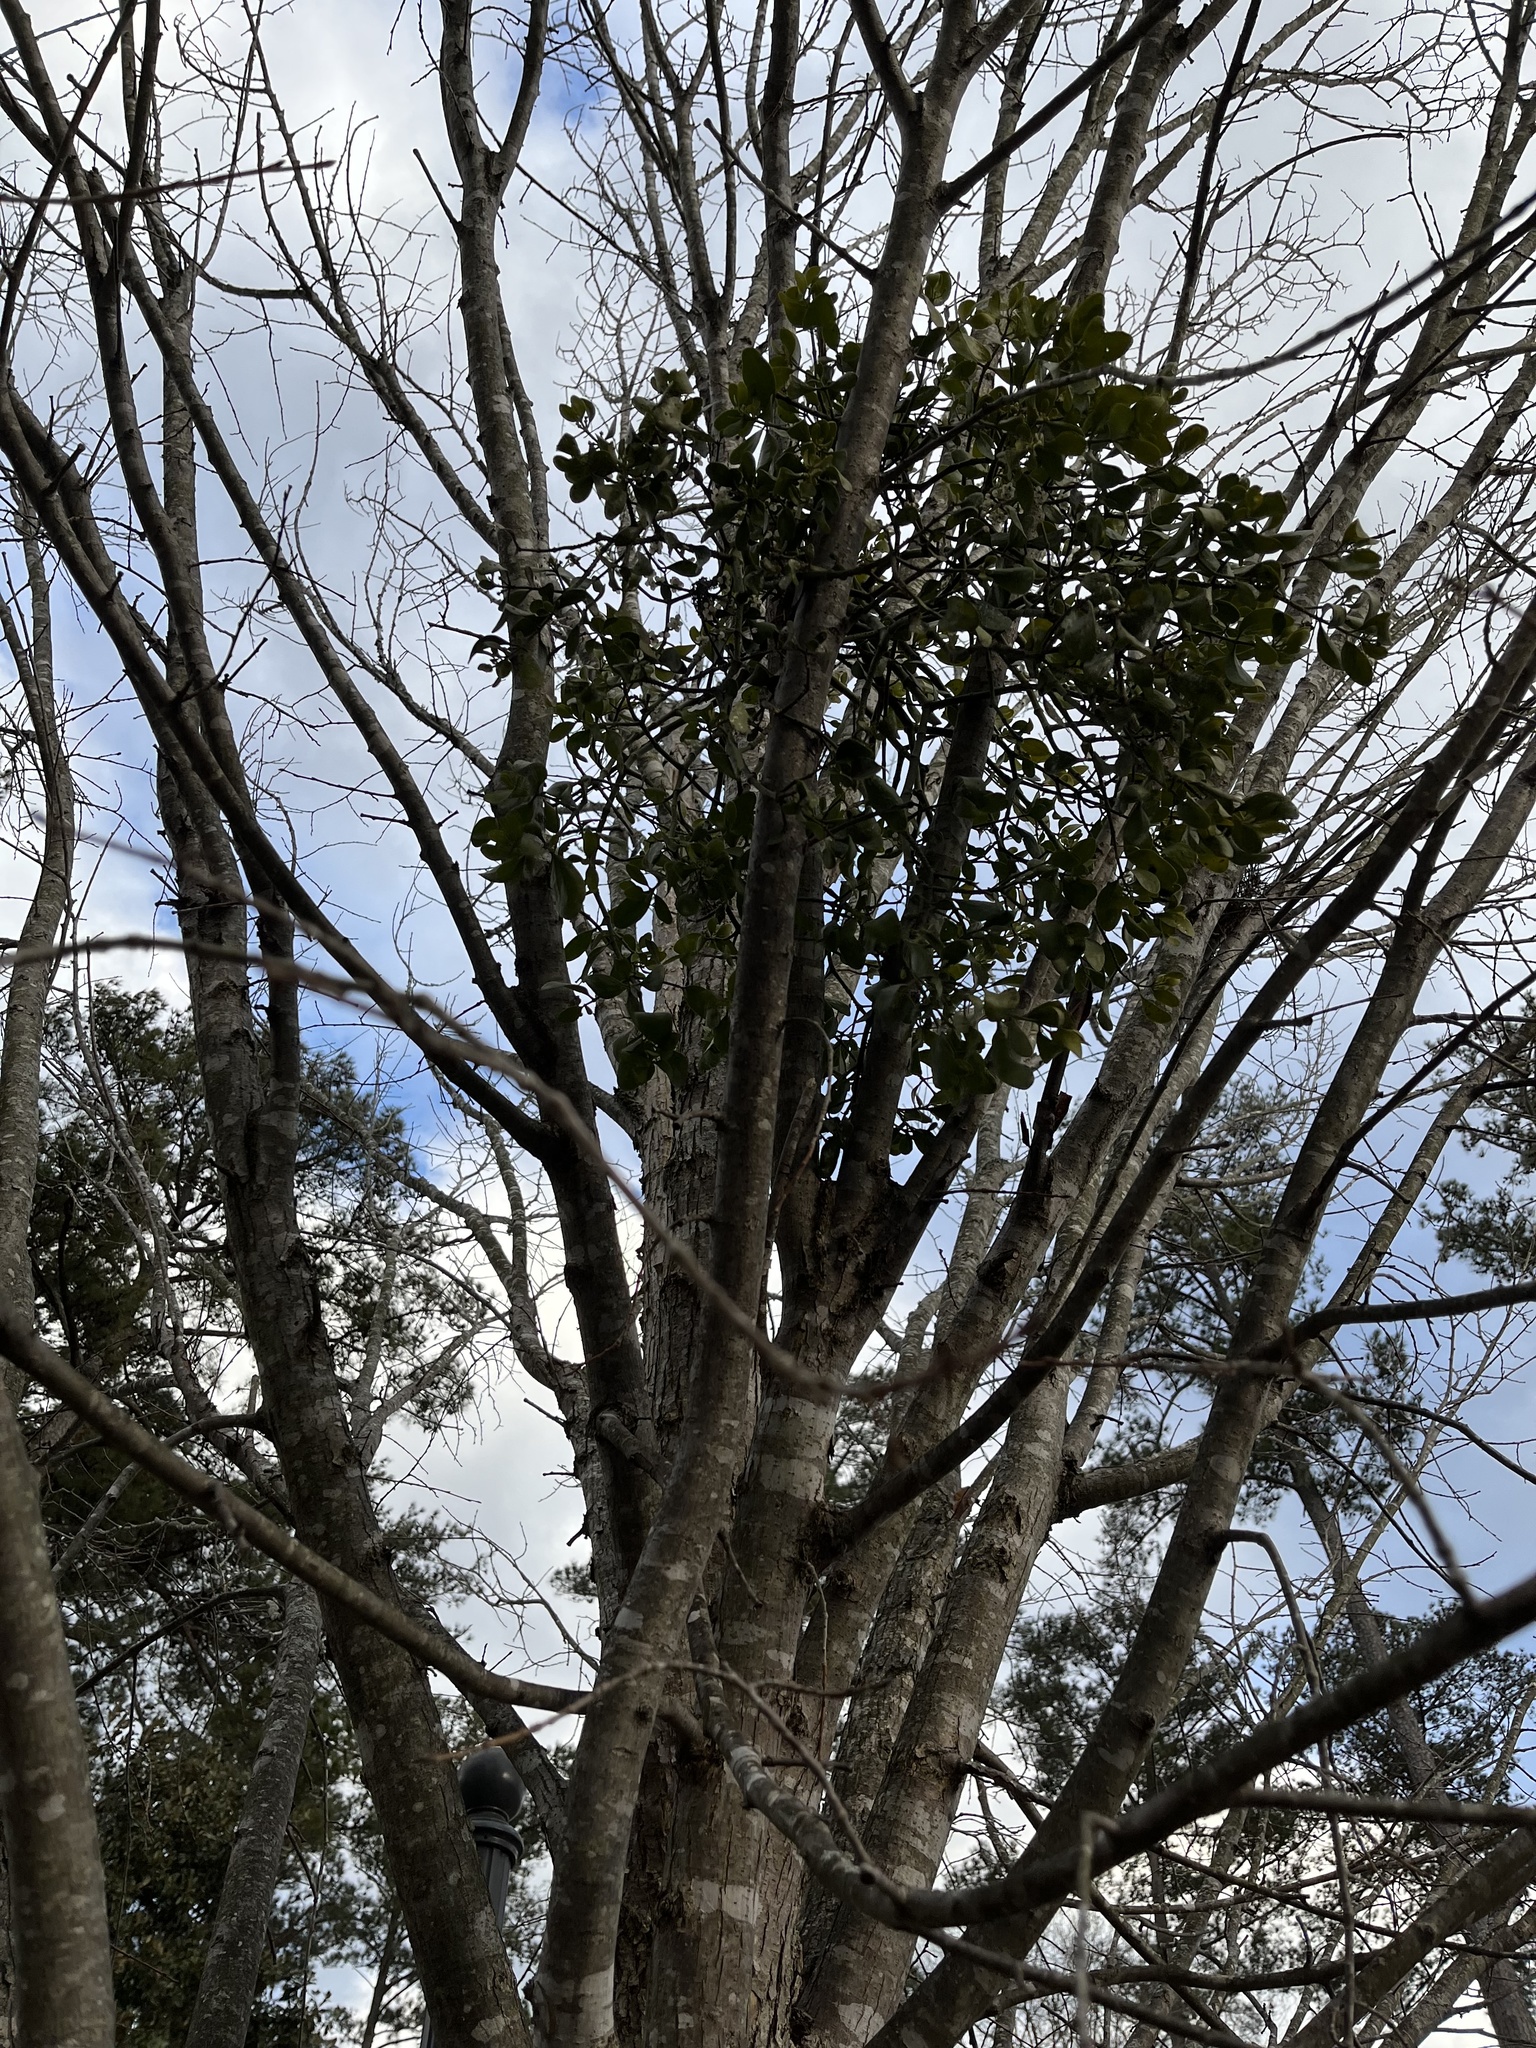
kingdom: Plantae
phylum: Tracheophyta
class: Magnoliopsida
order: Santalales
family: Viscaceae
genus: Phoradendron
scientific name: Phoradendron leucarpum
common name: Pacific mistletoe
